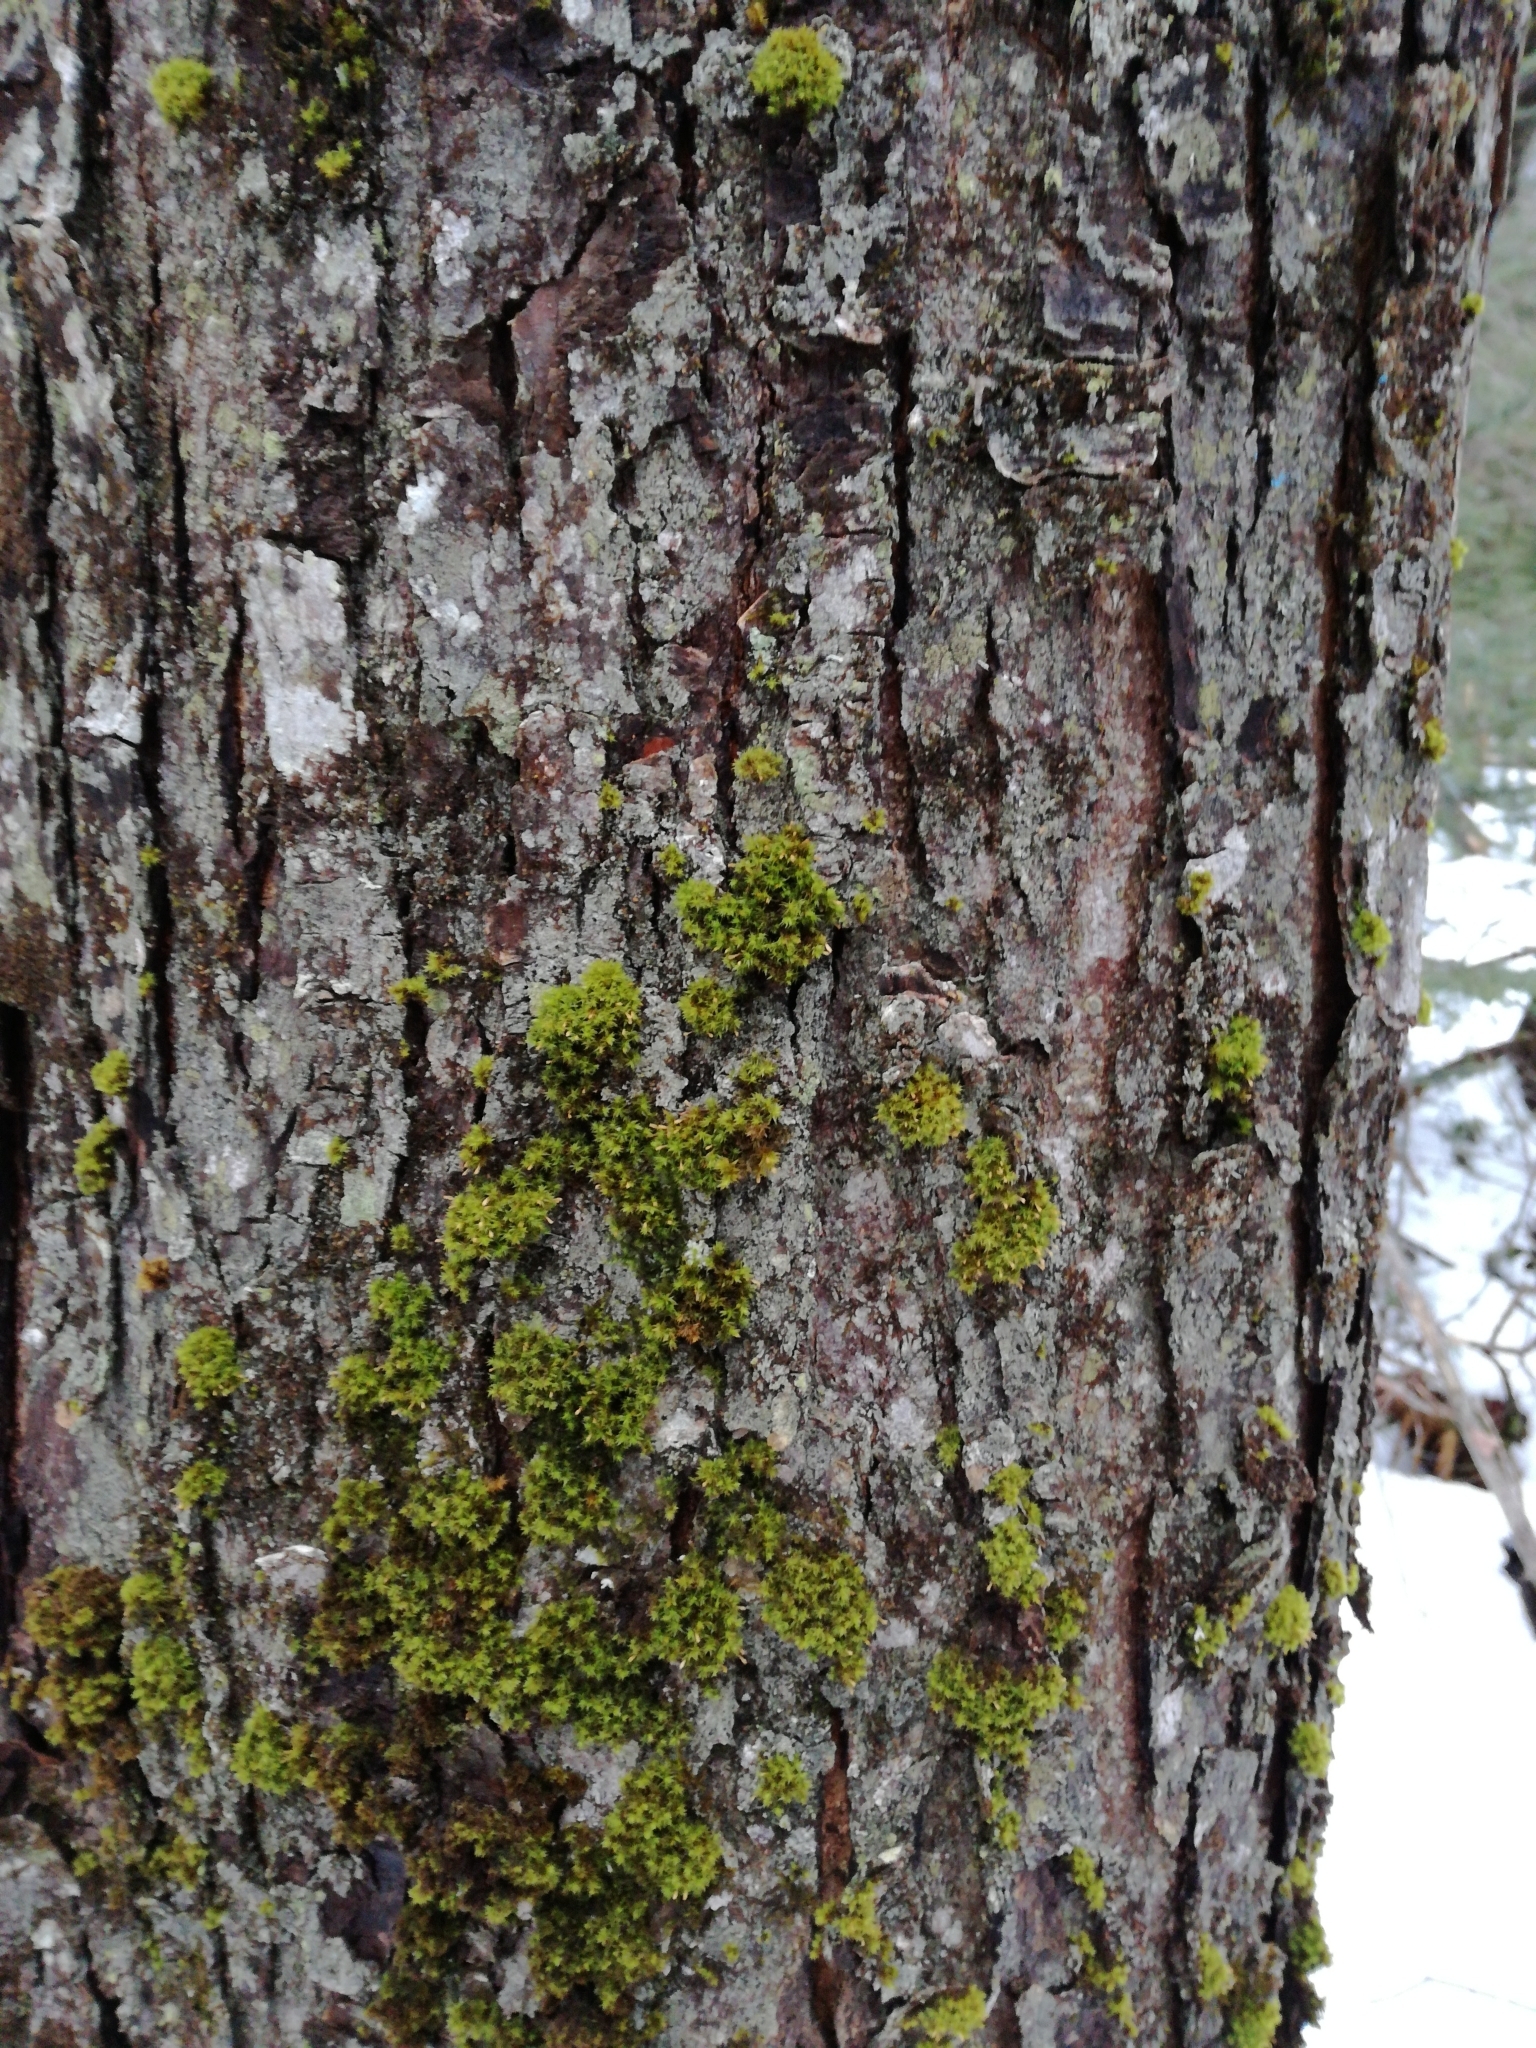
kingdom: Plantae
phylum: Bryophyta
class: Bryopsida
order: Orthotrichales
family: Orthotrichaceae
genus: Ulota
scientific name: Ulota crispa
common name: Crisped pincushion moss
